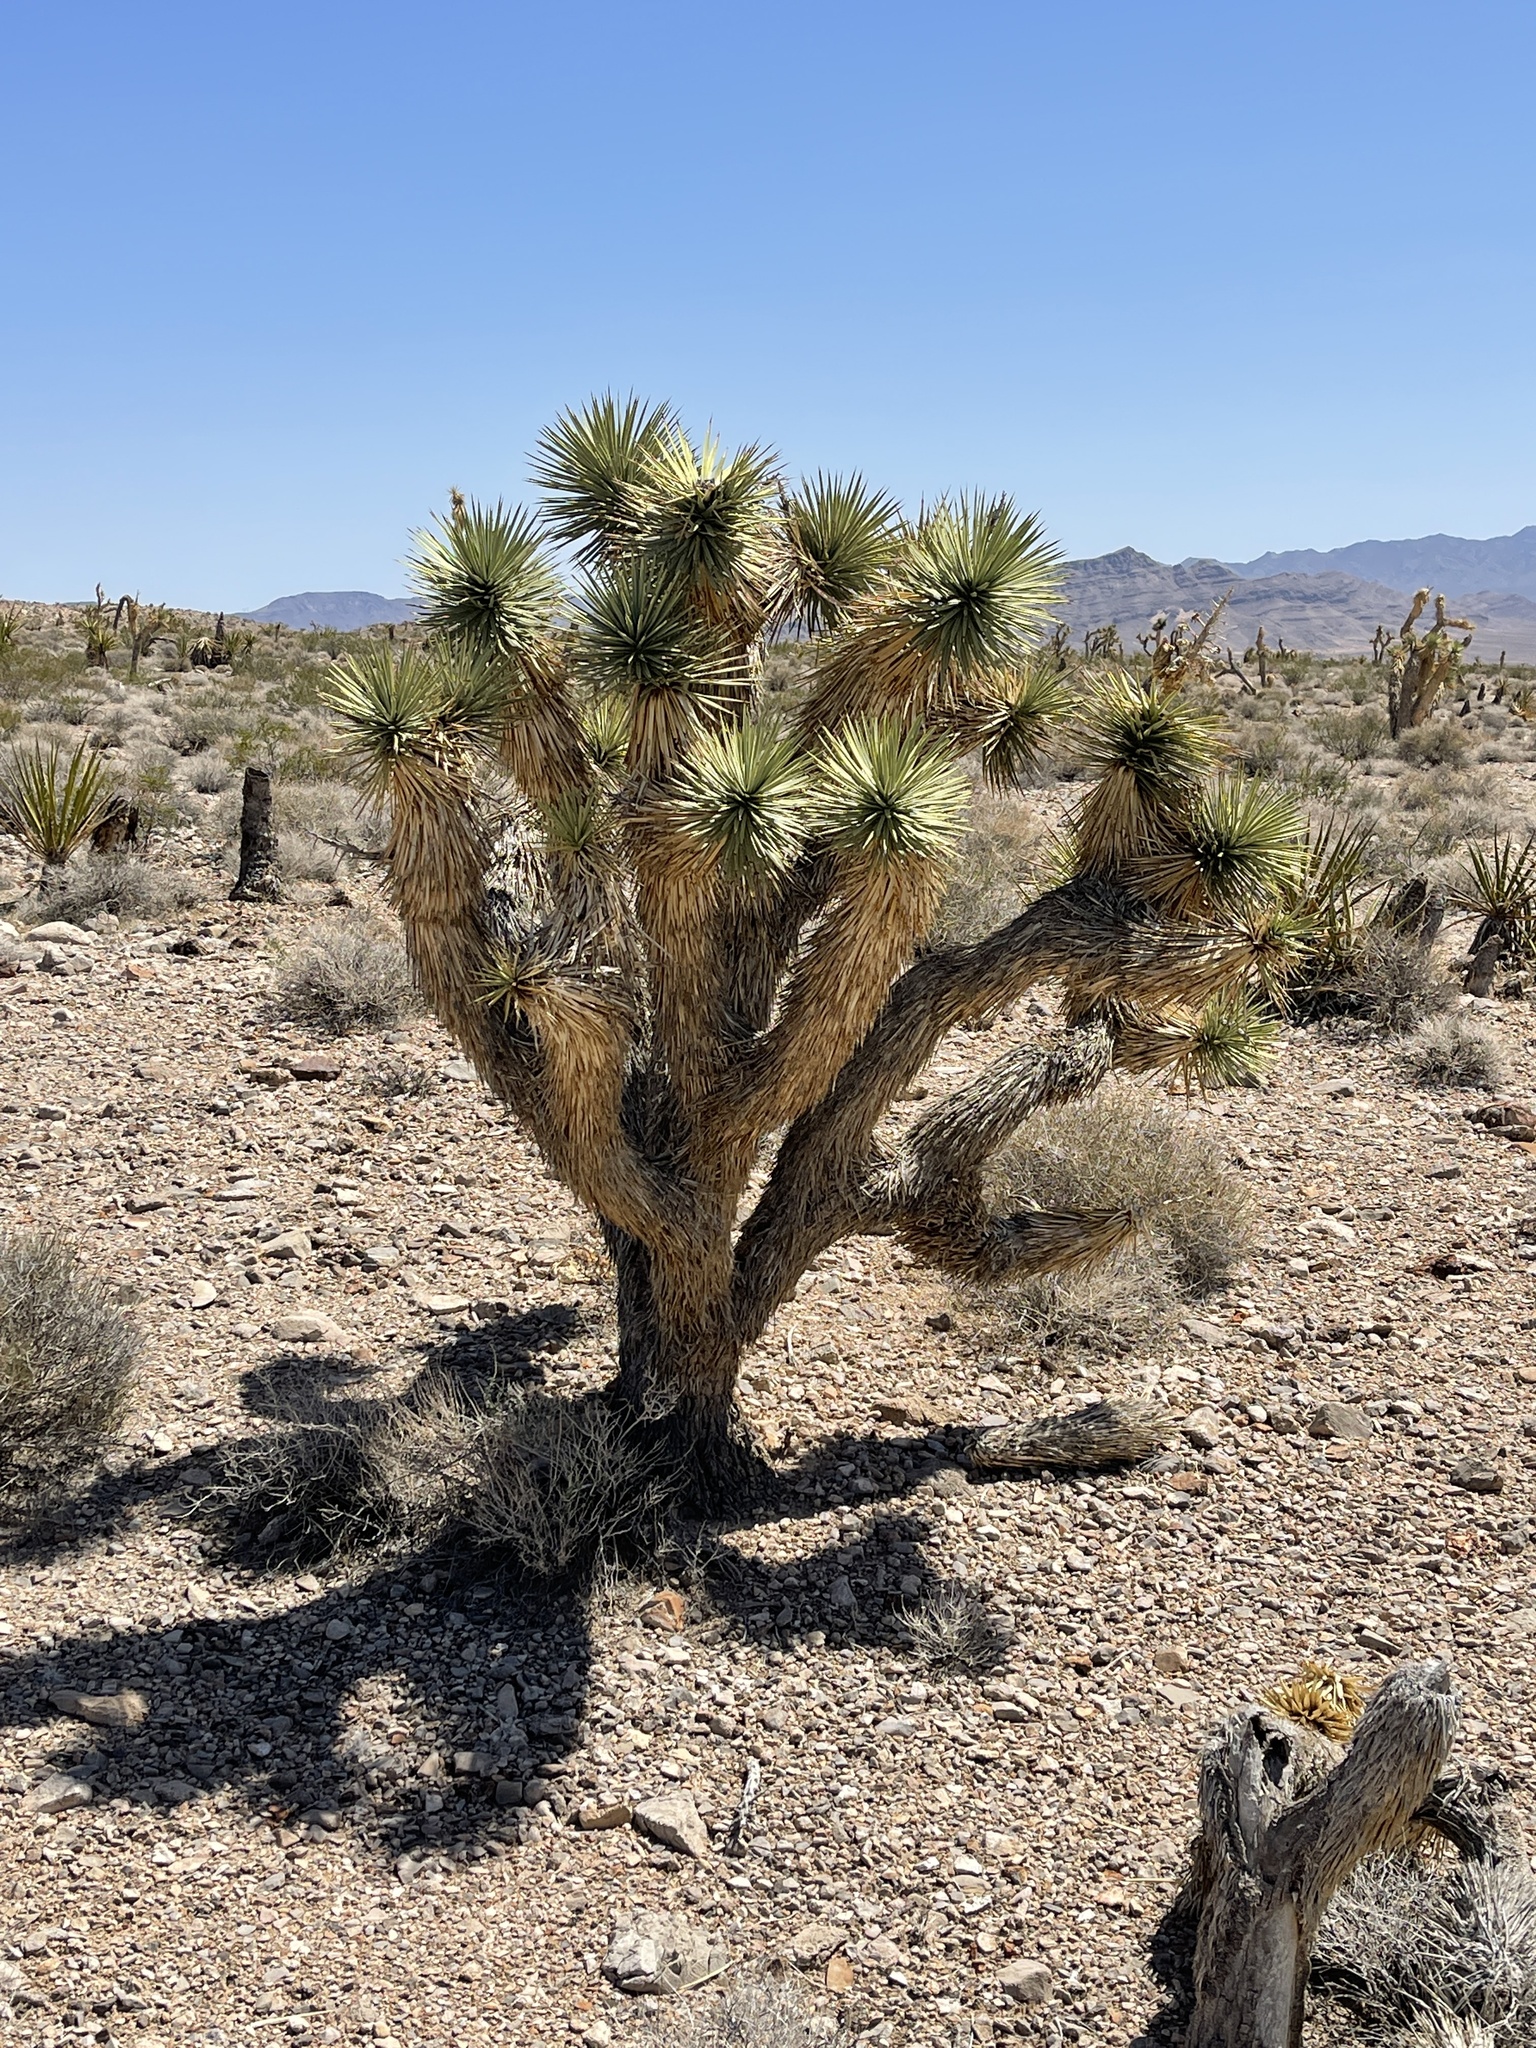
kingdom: Plantae
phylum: Tracheophyta
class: Liliopsida
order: Asparagales
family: Asparagaceae
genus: Yucca
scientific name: Yucca brevifolia
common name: Joshua tree
